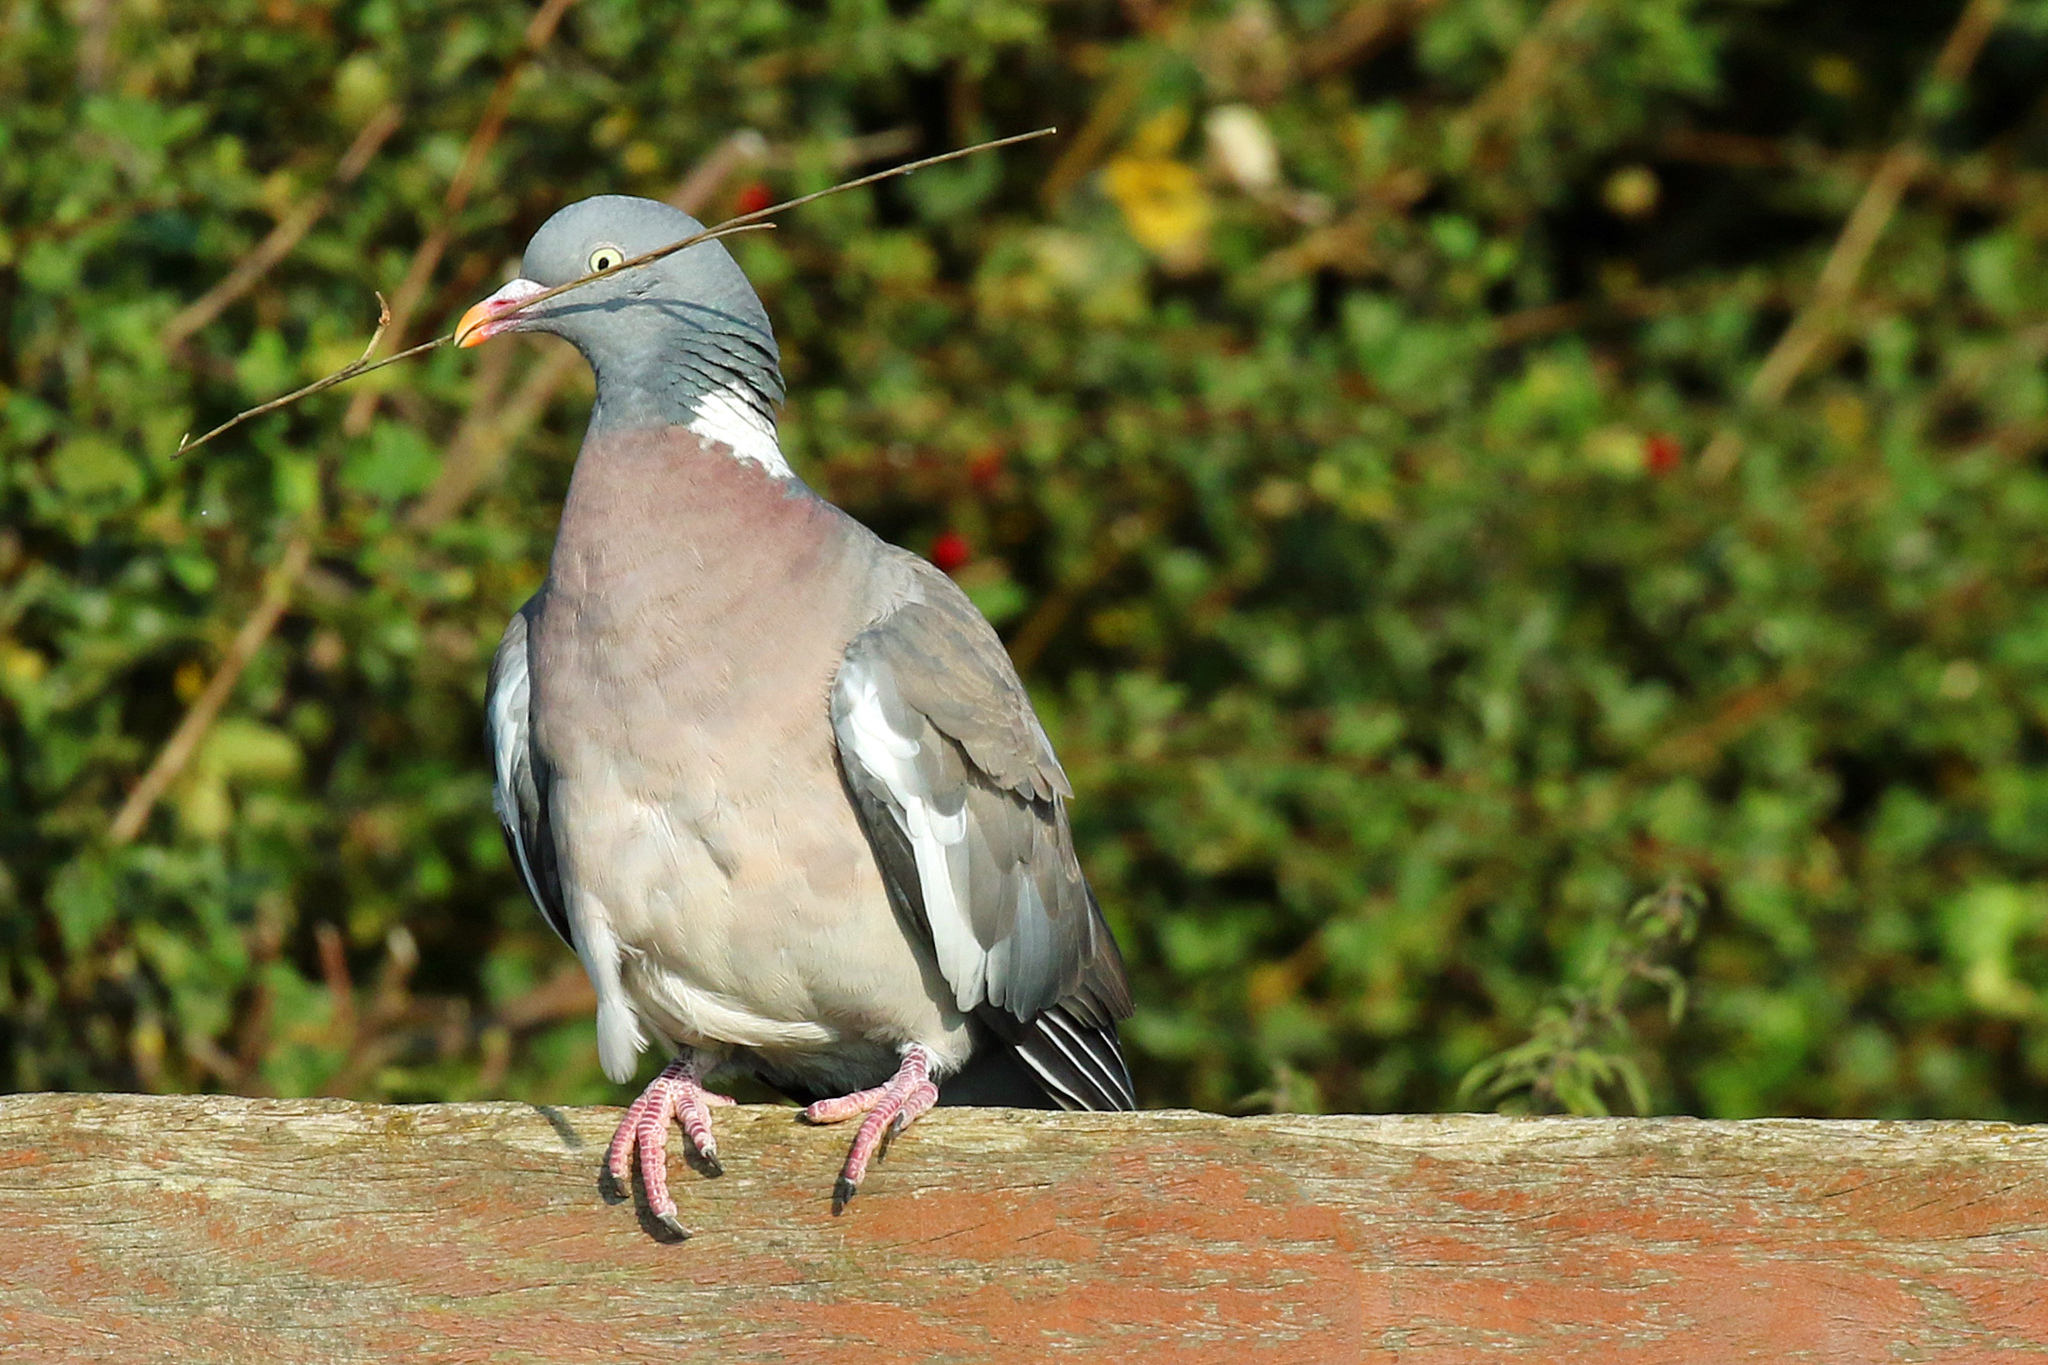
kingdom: Animalia
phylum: Chordata
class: Aves
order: Columbiformes
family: Columbidae
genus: Columba
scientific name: Columba palumbus
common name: Common wood pigeon
